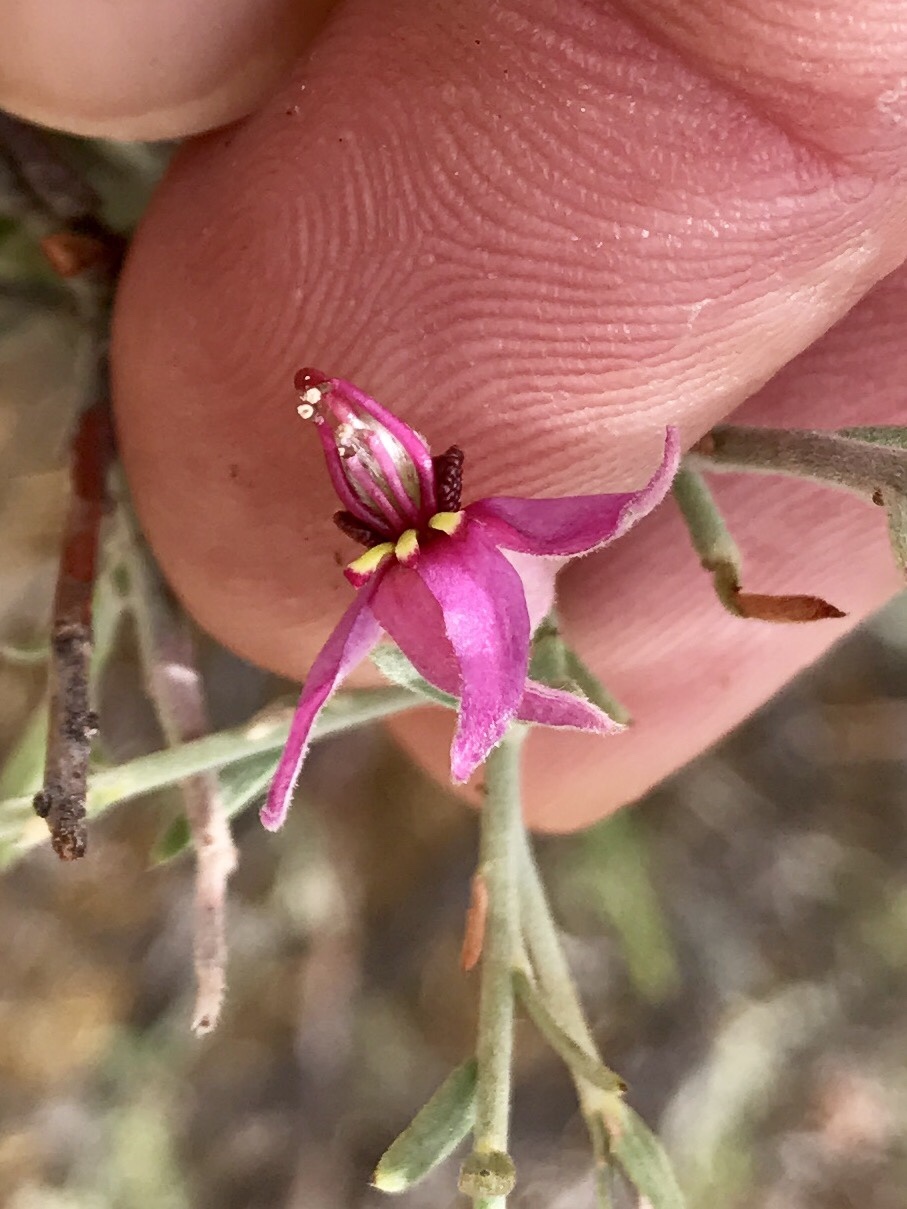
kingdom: Plantae
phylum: Tracheophyta
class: Magnoliopsida
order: Zygophyllales
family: Krameriaceae
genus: Krameria
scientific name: Krameria bicolor
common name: White ratany
